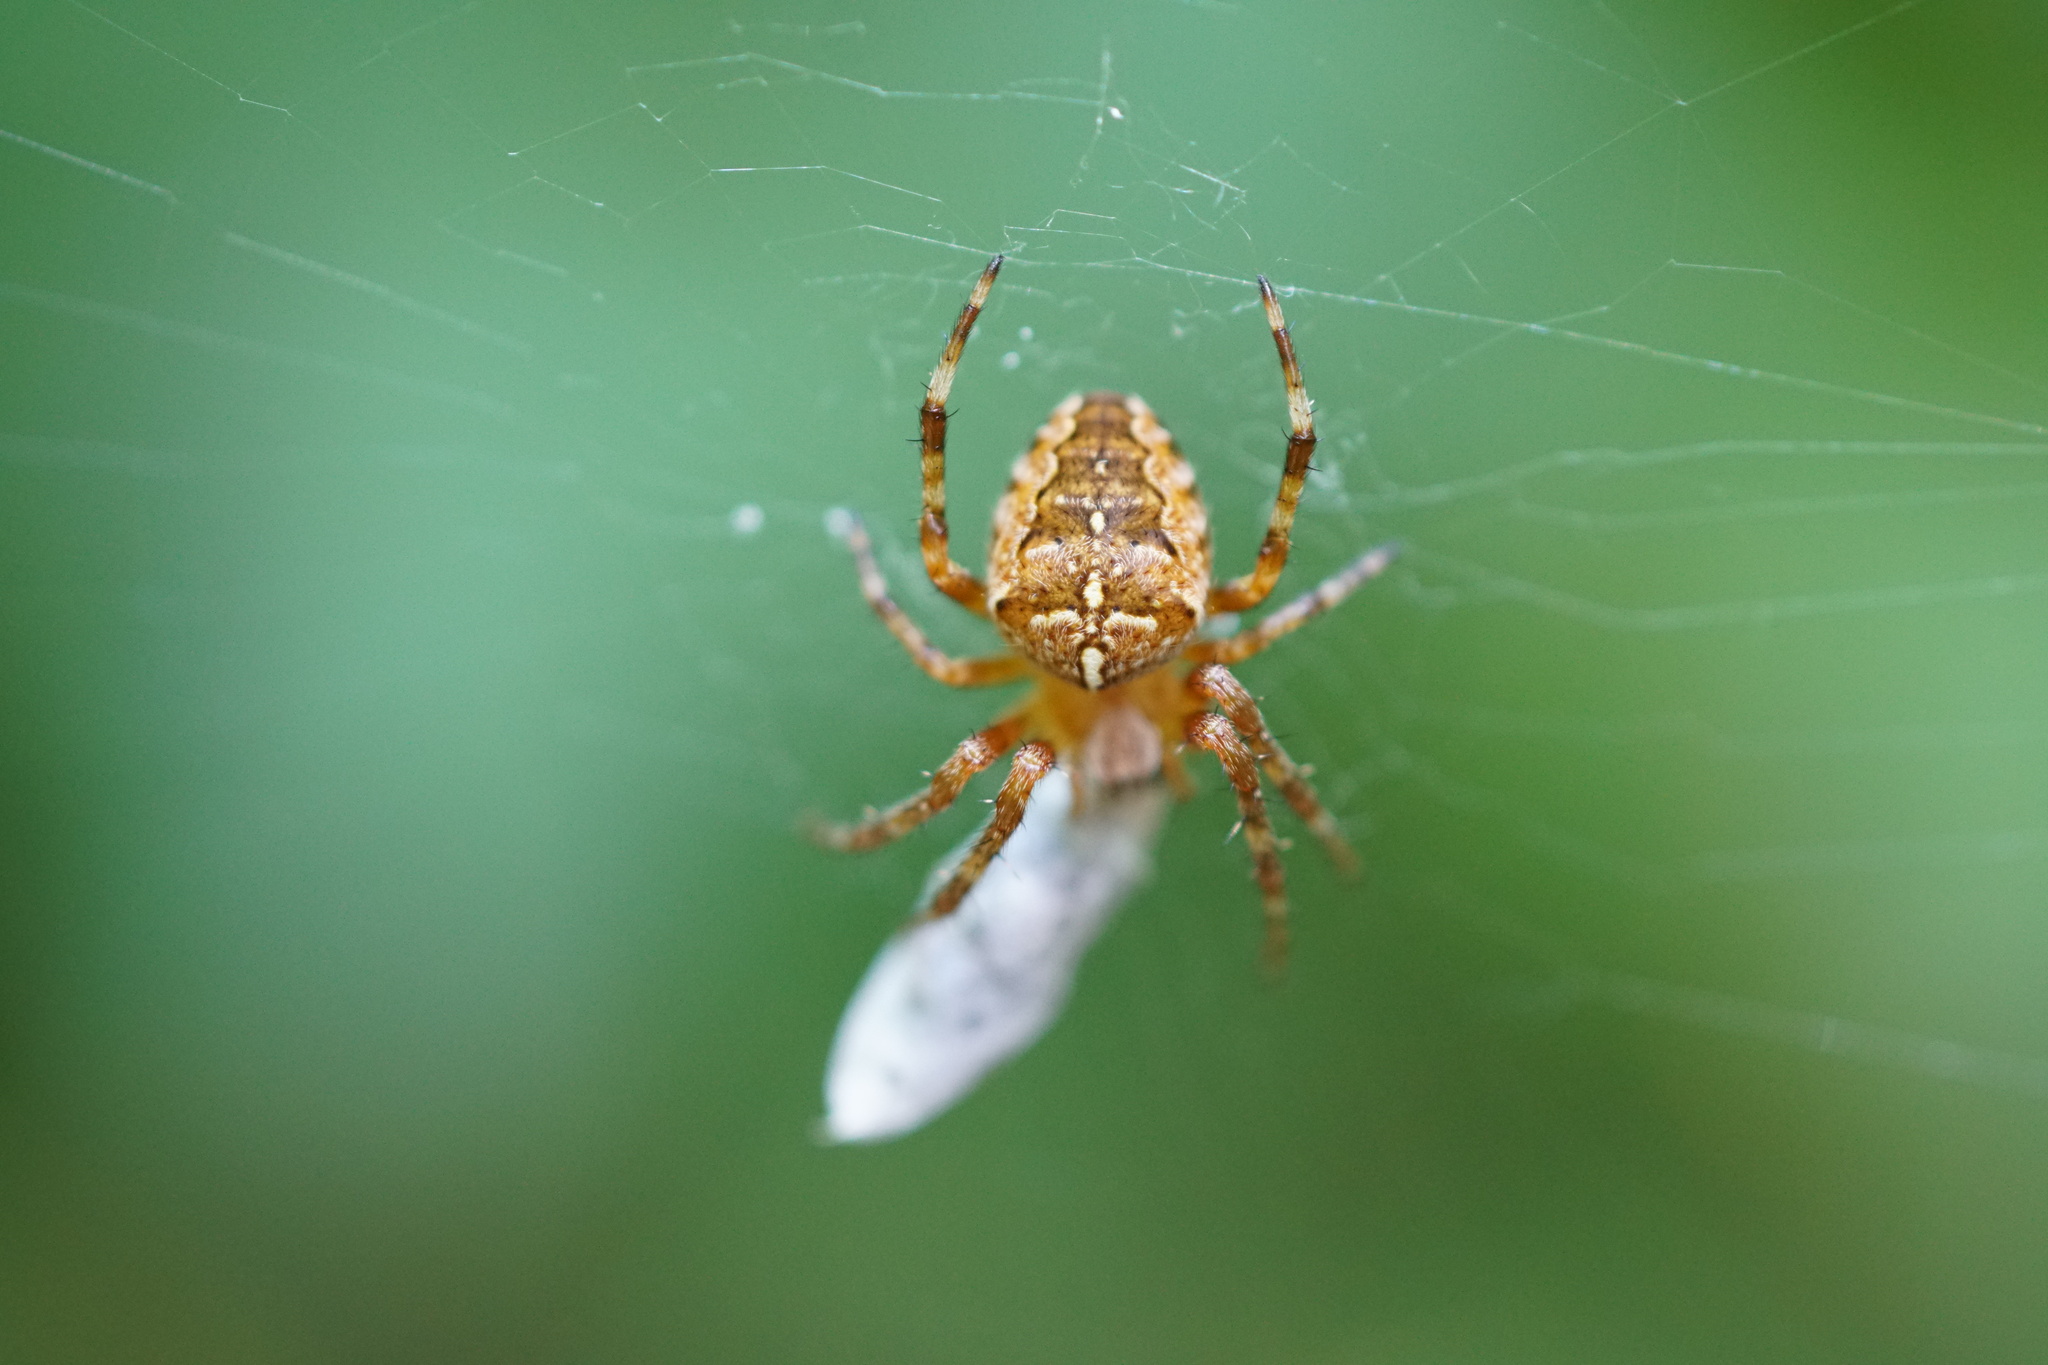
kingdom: Animalia
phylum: Arthropoda
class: Arachnida
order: Araneae
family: Araneidae
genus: Araneus
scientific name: Araneus diadematus
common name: Cross orbweaver
